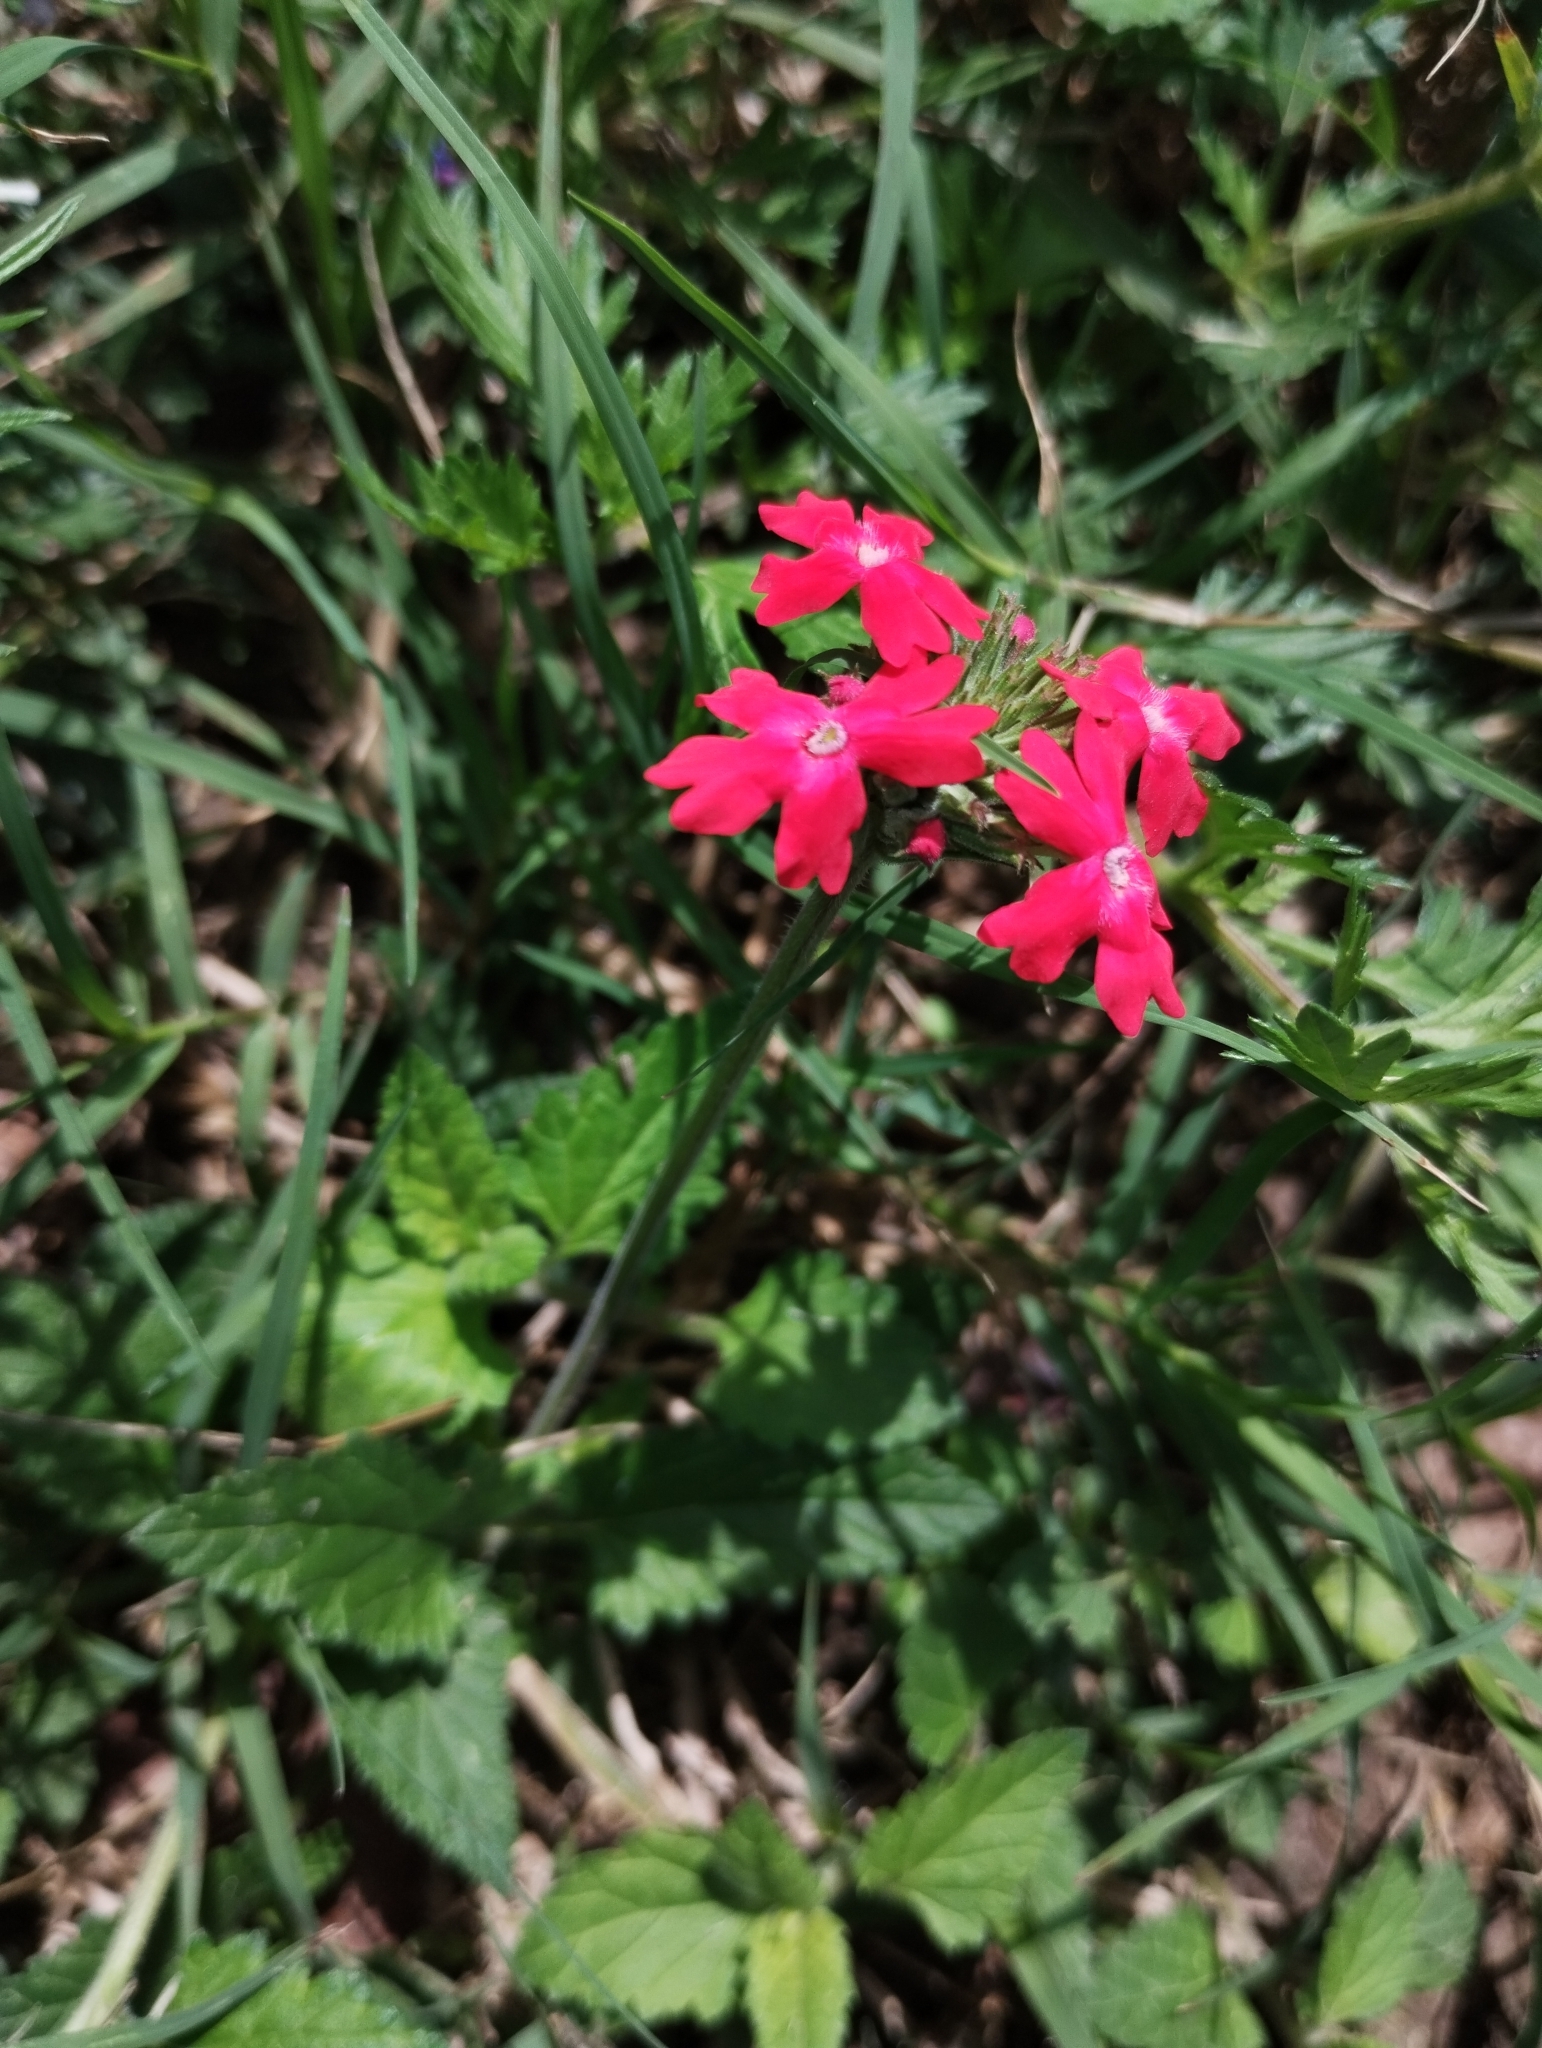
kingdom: Plantae
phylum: Tracheophyta
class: Magnoliopsida
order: Lamiales
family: Verbenaceae
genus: Verbena
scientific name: Verbena tweedieana
